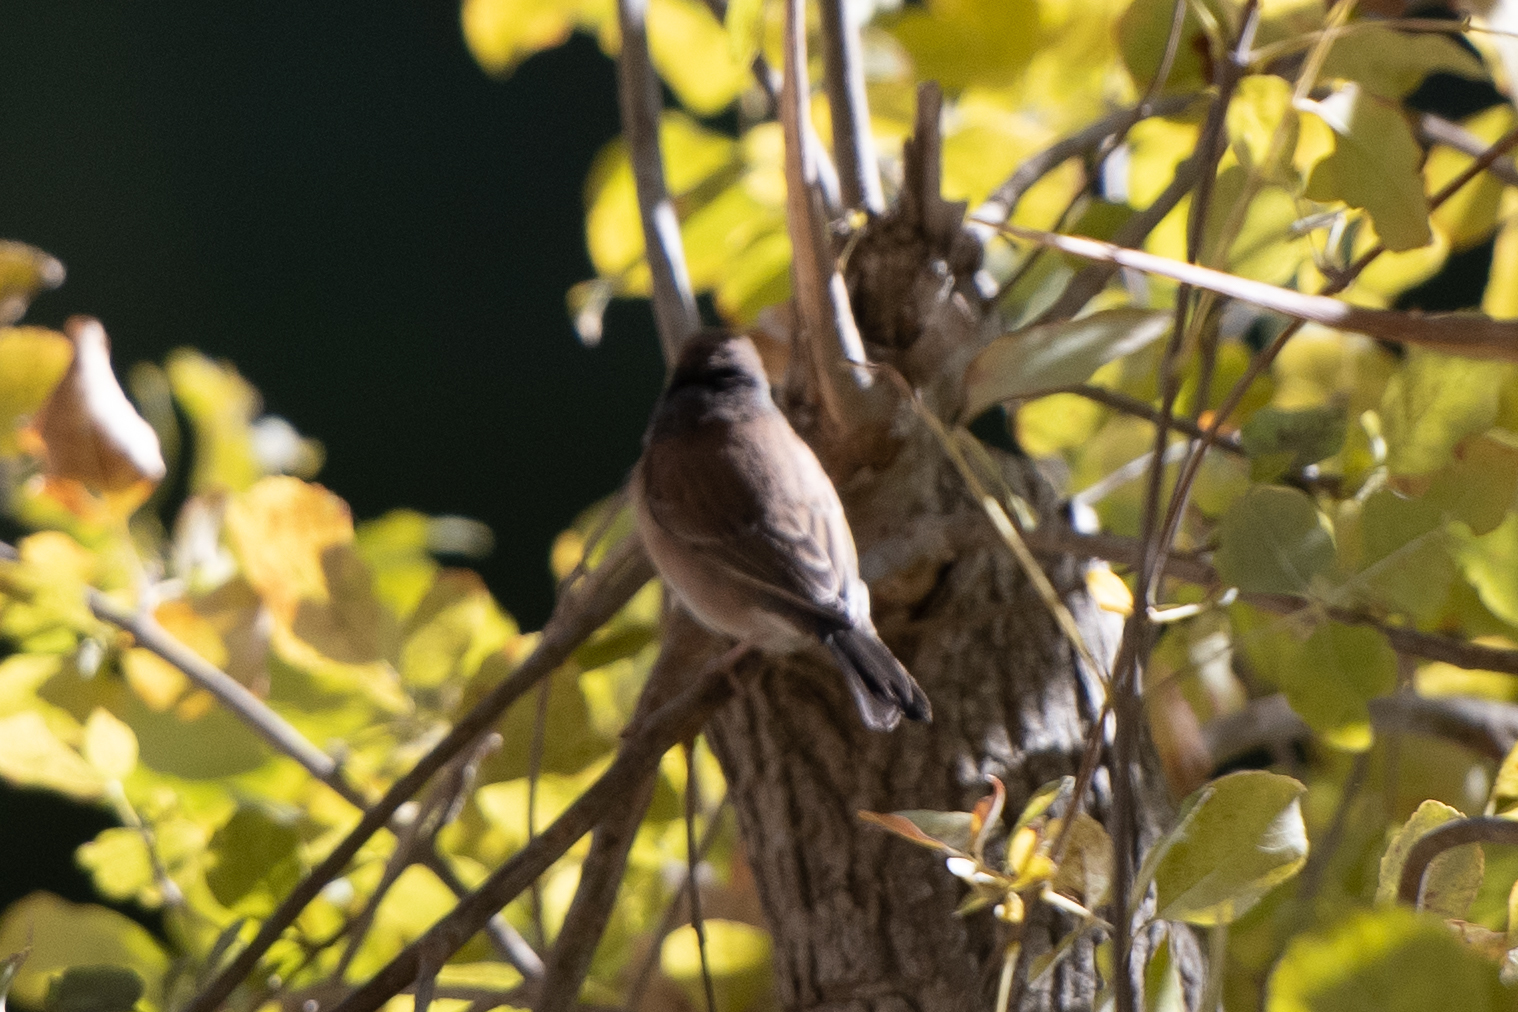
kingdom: Animalia
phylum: Chordata
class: Aves
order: Passeriformes
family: Passerellidae
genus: Junco
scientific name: Junco hyemalis
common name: Dark-eyed junco
